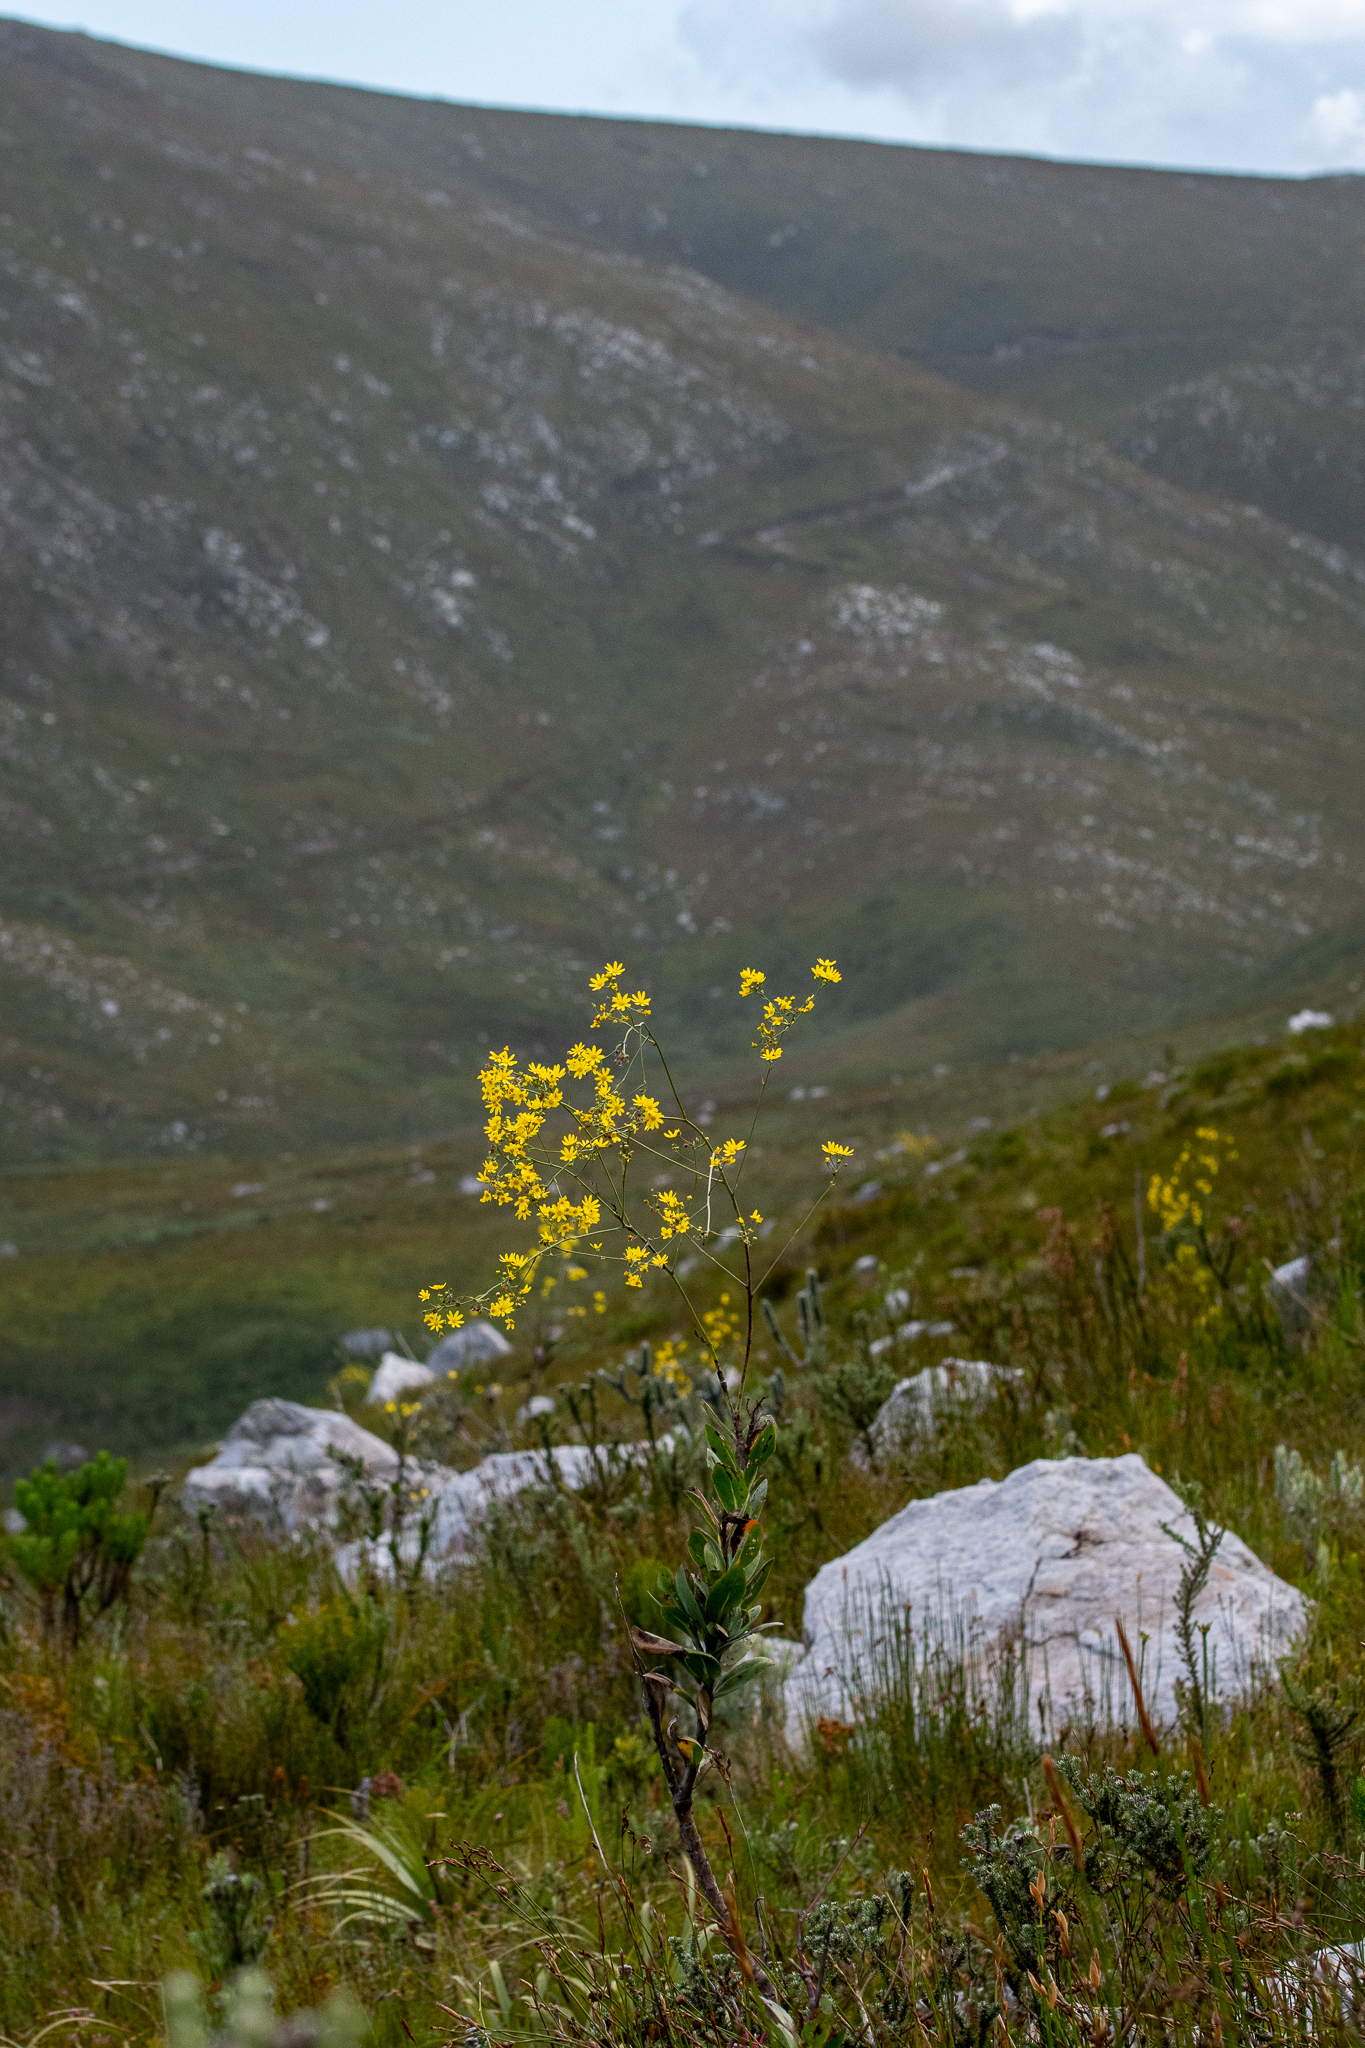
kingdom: Plantae
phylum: Tracheophyta
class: Magnoliopsida
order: Asterales
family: Asteraceae
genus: Othonna
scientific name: Othonna quinquedentata
